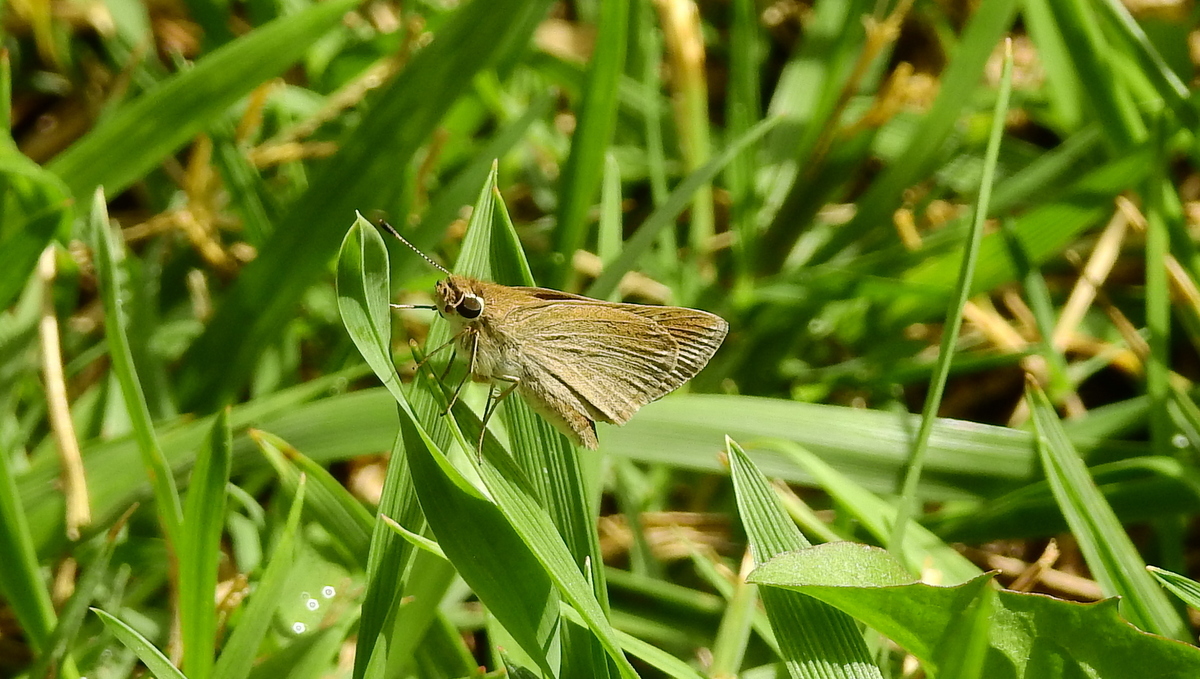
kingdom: Animalia
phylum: Arthropoda
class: Insecta
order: Lepidoptera
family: Hesperiidae
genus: Lerodea
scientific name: Lerodea eufala
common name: Eufala skipper
